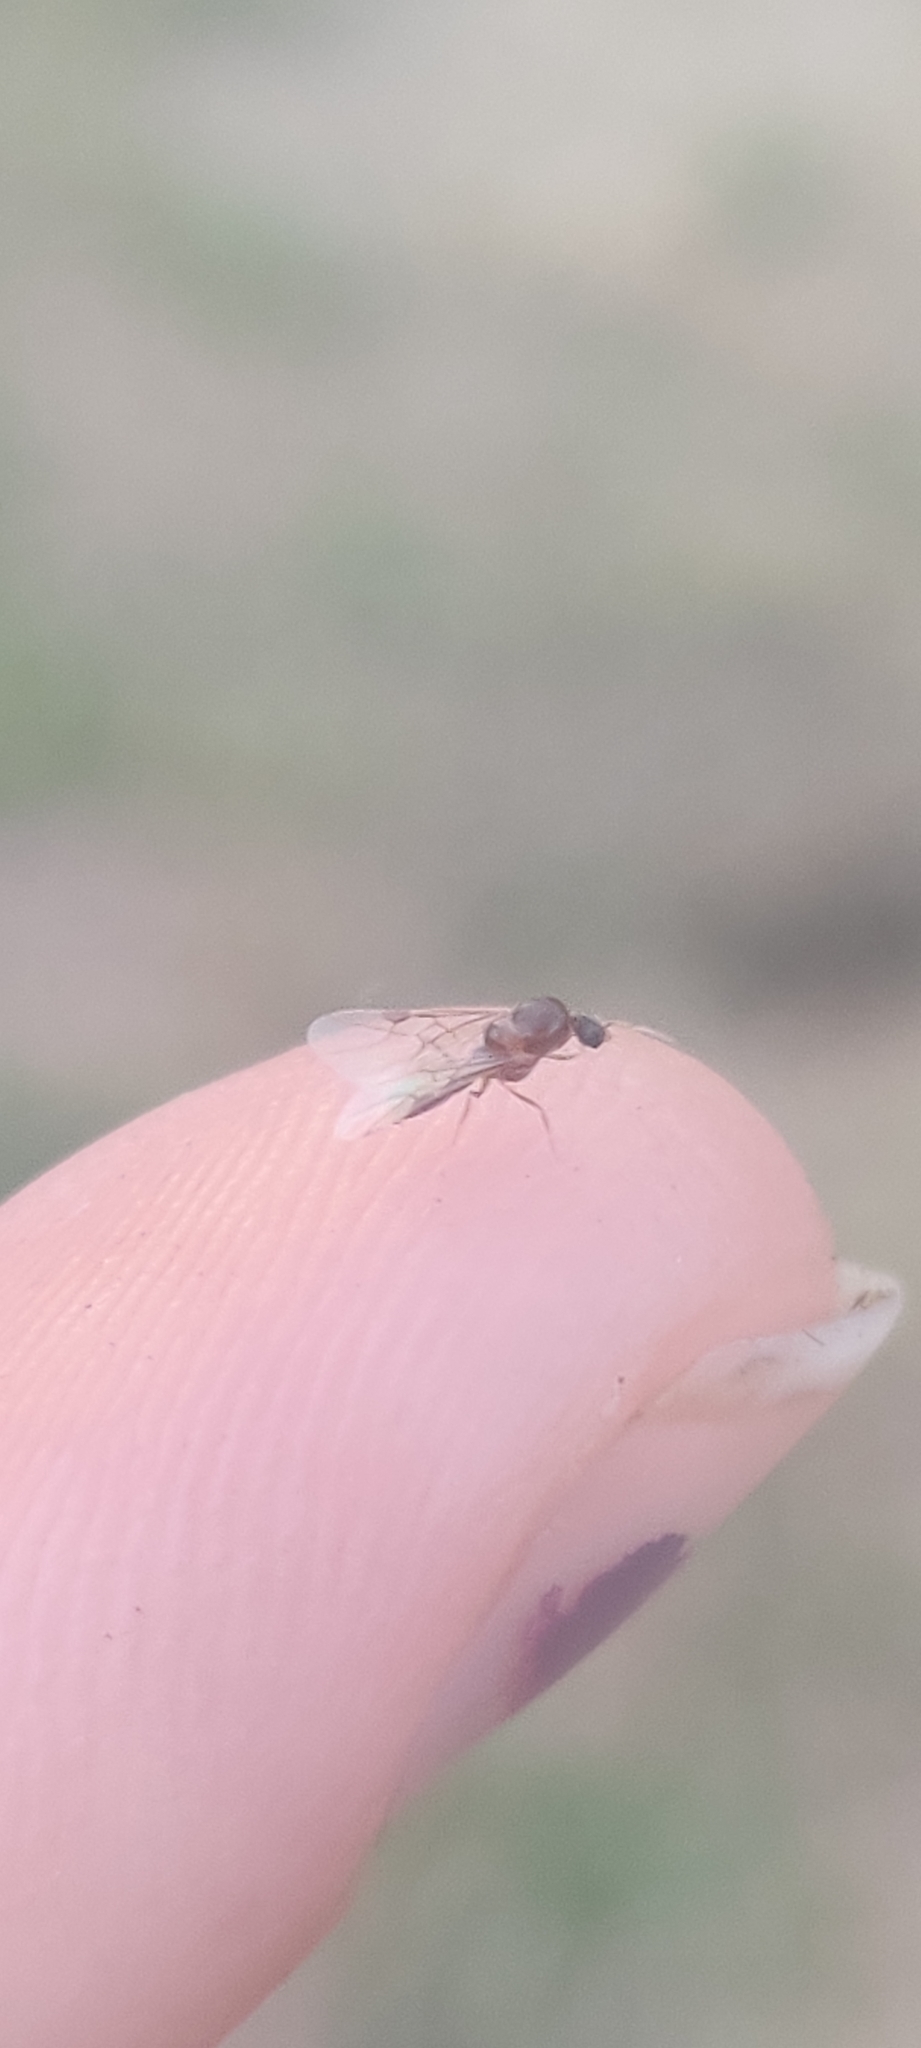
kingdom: Animalia
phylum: Arthropoda
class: Insecta
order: Hymenoptera
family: Formicidae
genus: Linepithema
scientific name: Linepithema humile
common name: Argentine ant
